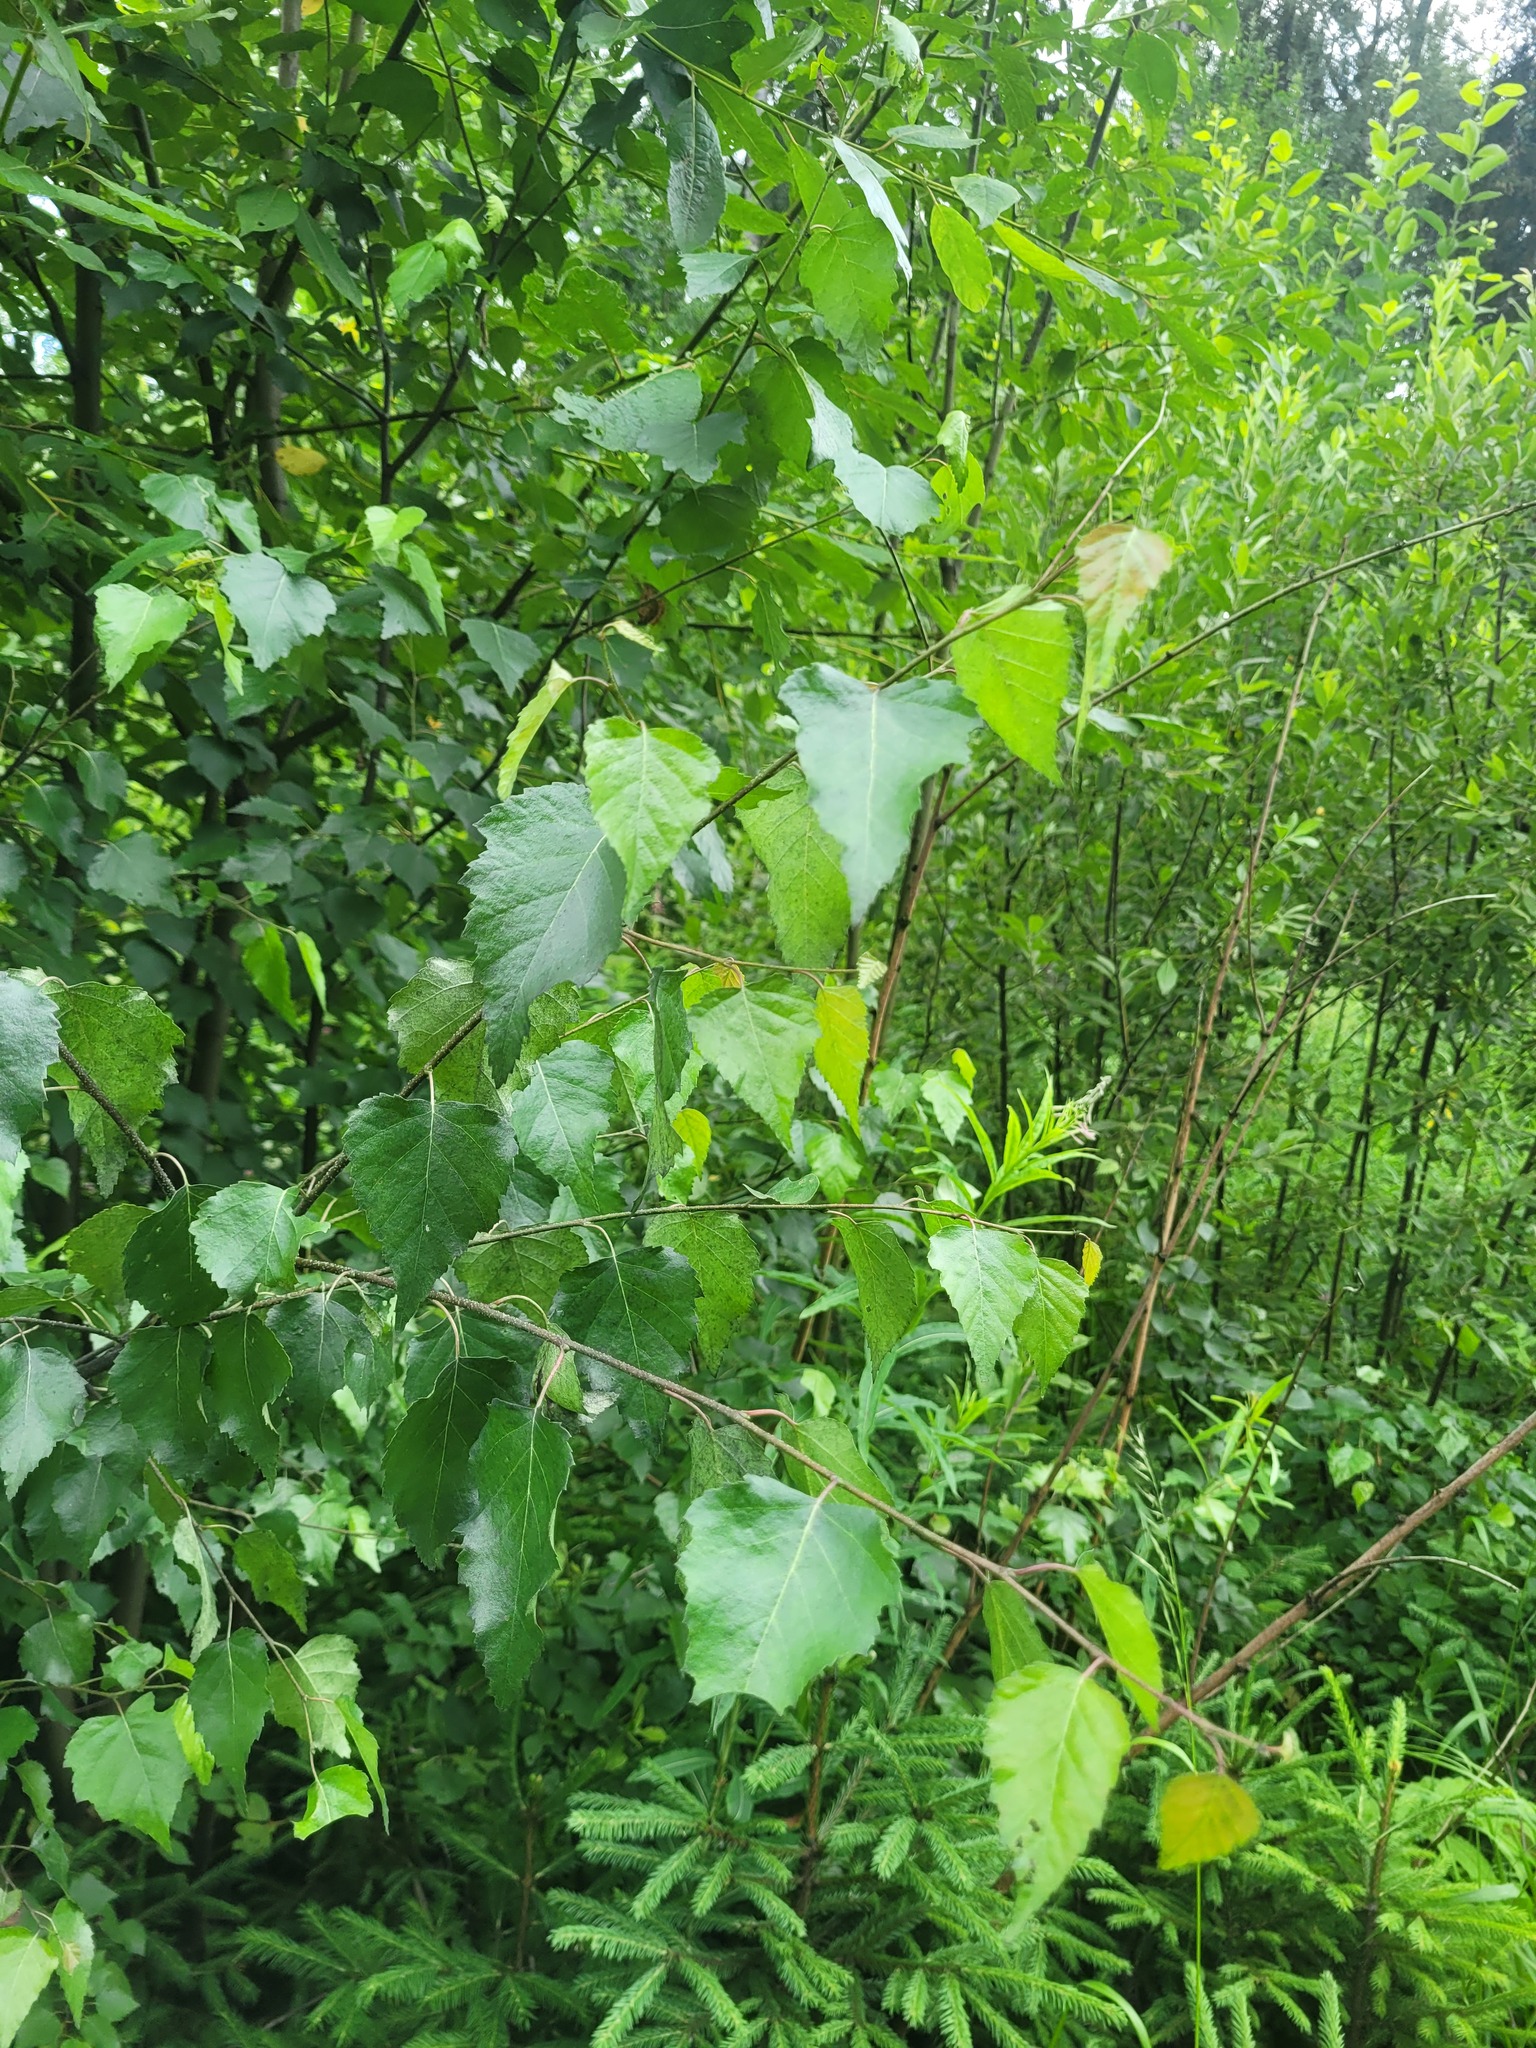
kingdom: Plantae
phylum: Tracheophyta
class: Magnoliopsida
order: Fagales
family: Betulaceae
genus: Betula
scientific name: Betula pendula
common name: Silver birch
